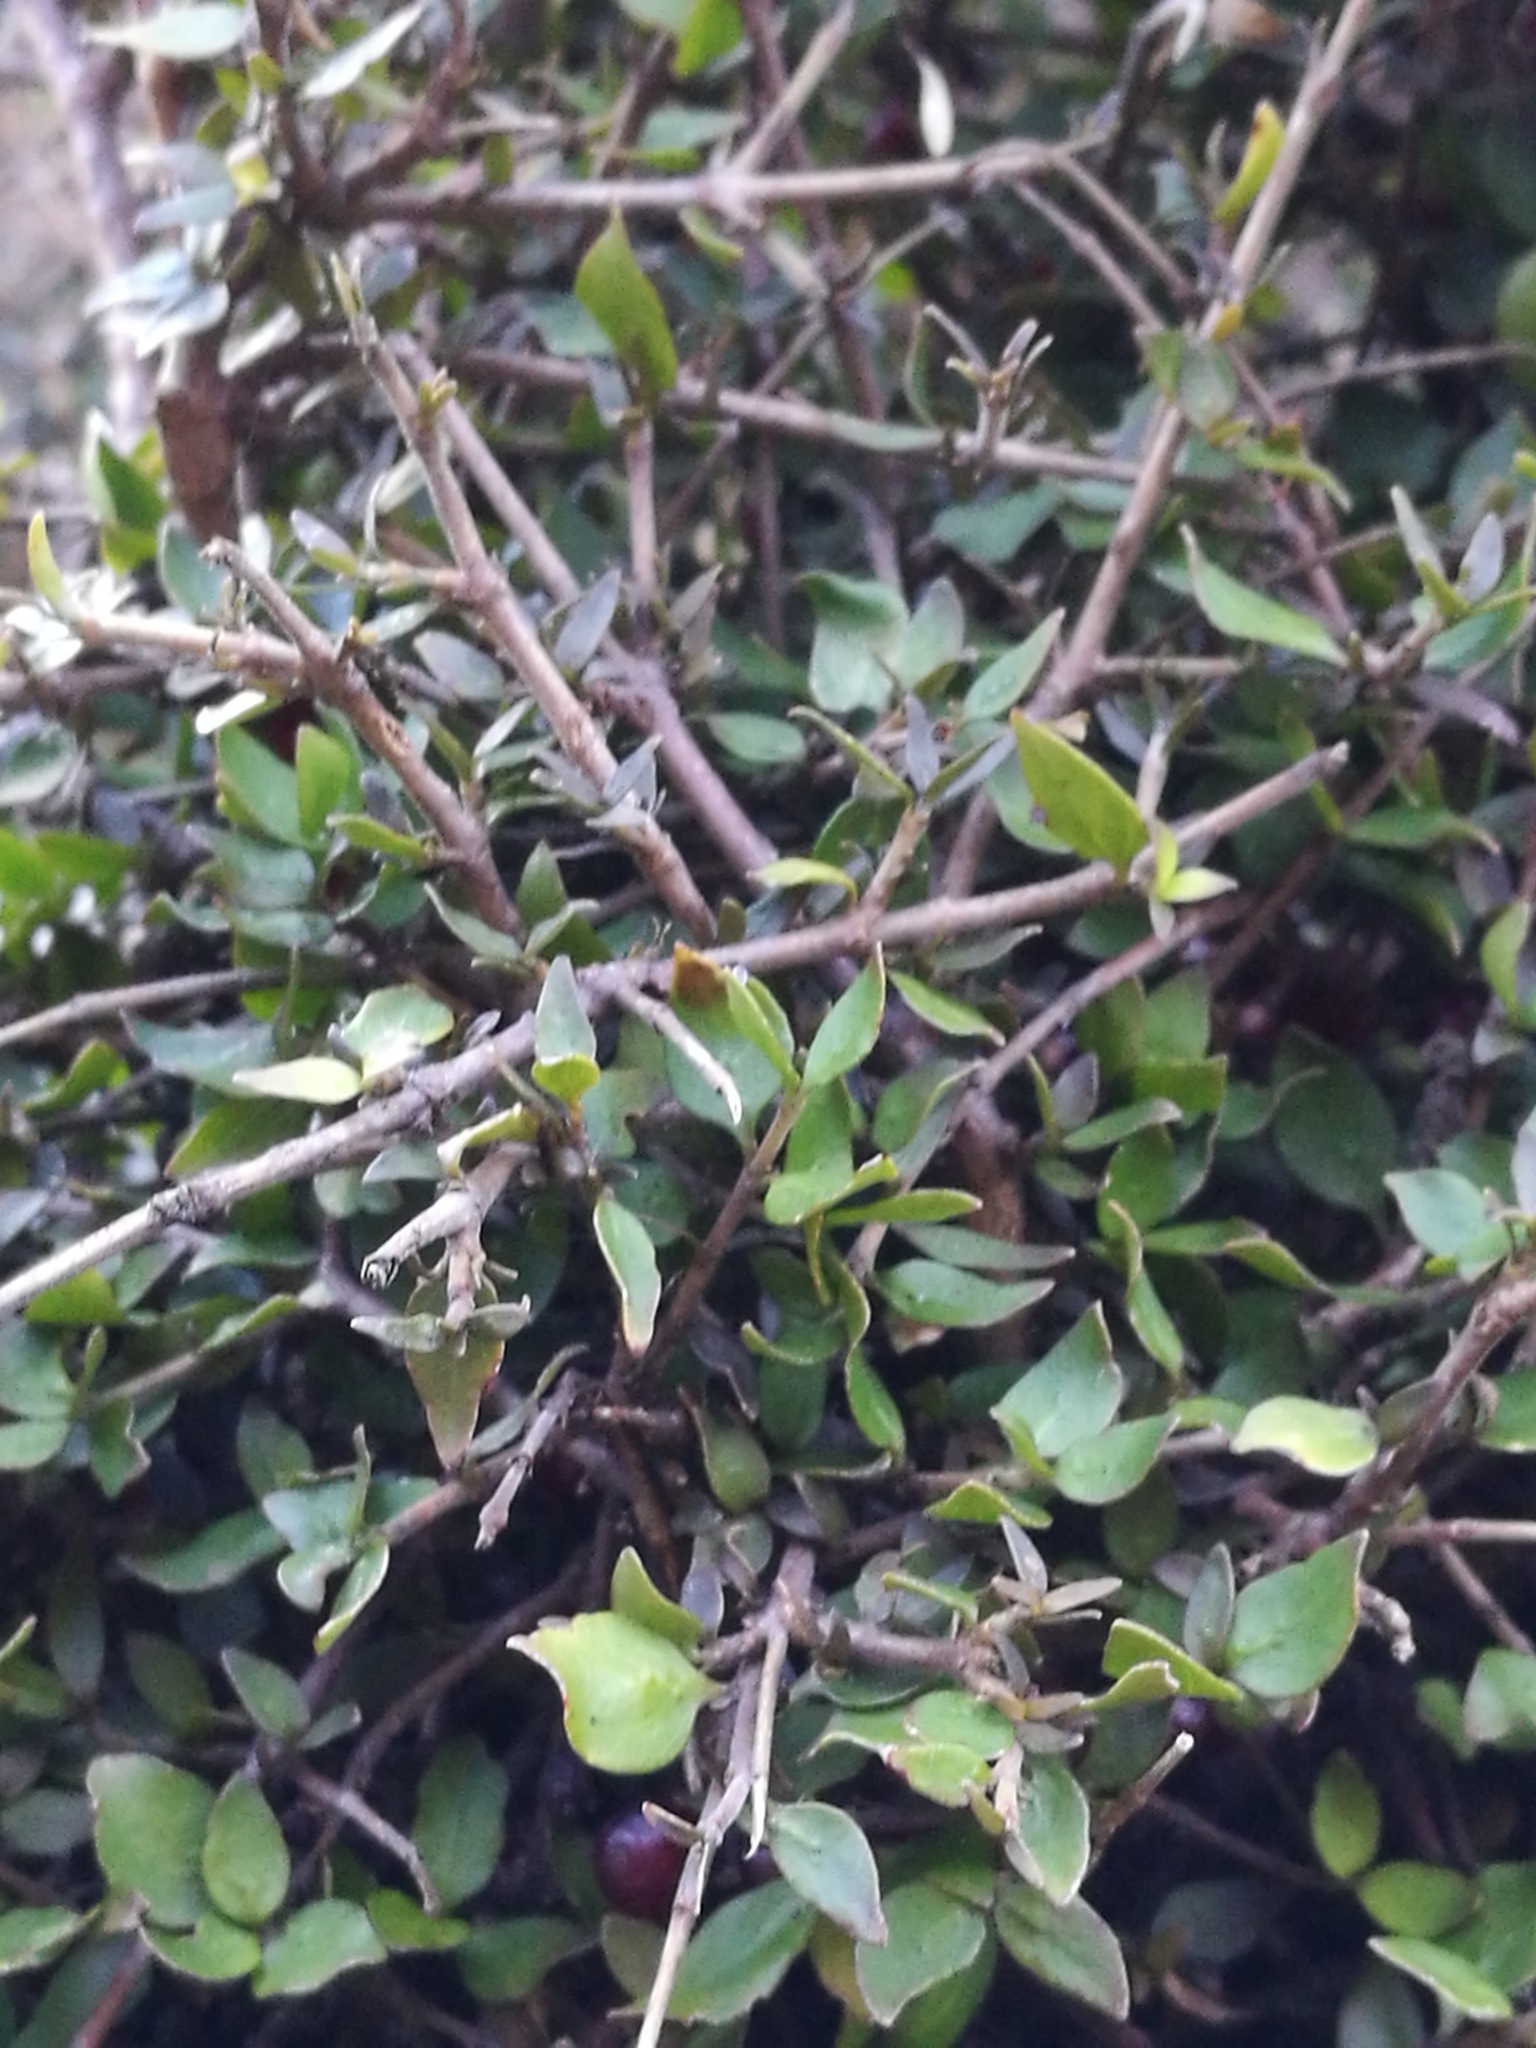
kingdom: Plantae
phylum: Tracheophyta
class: Magnoliopsida
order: Gentianales
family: Rubiaceae
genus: Coprosma
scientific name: Coprosma rhamnoides
